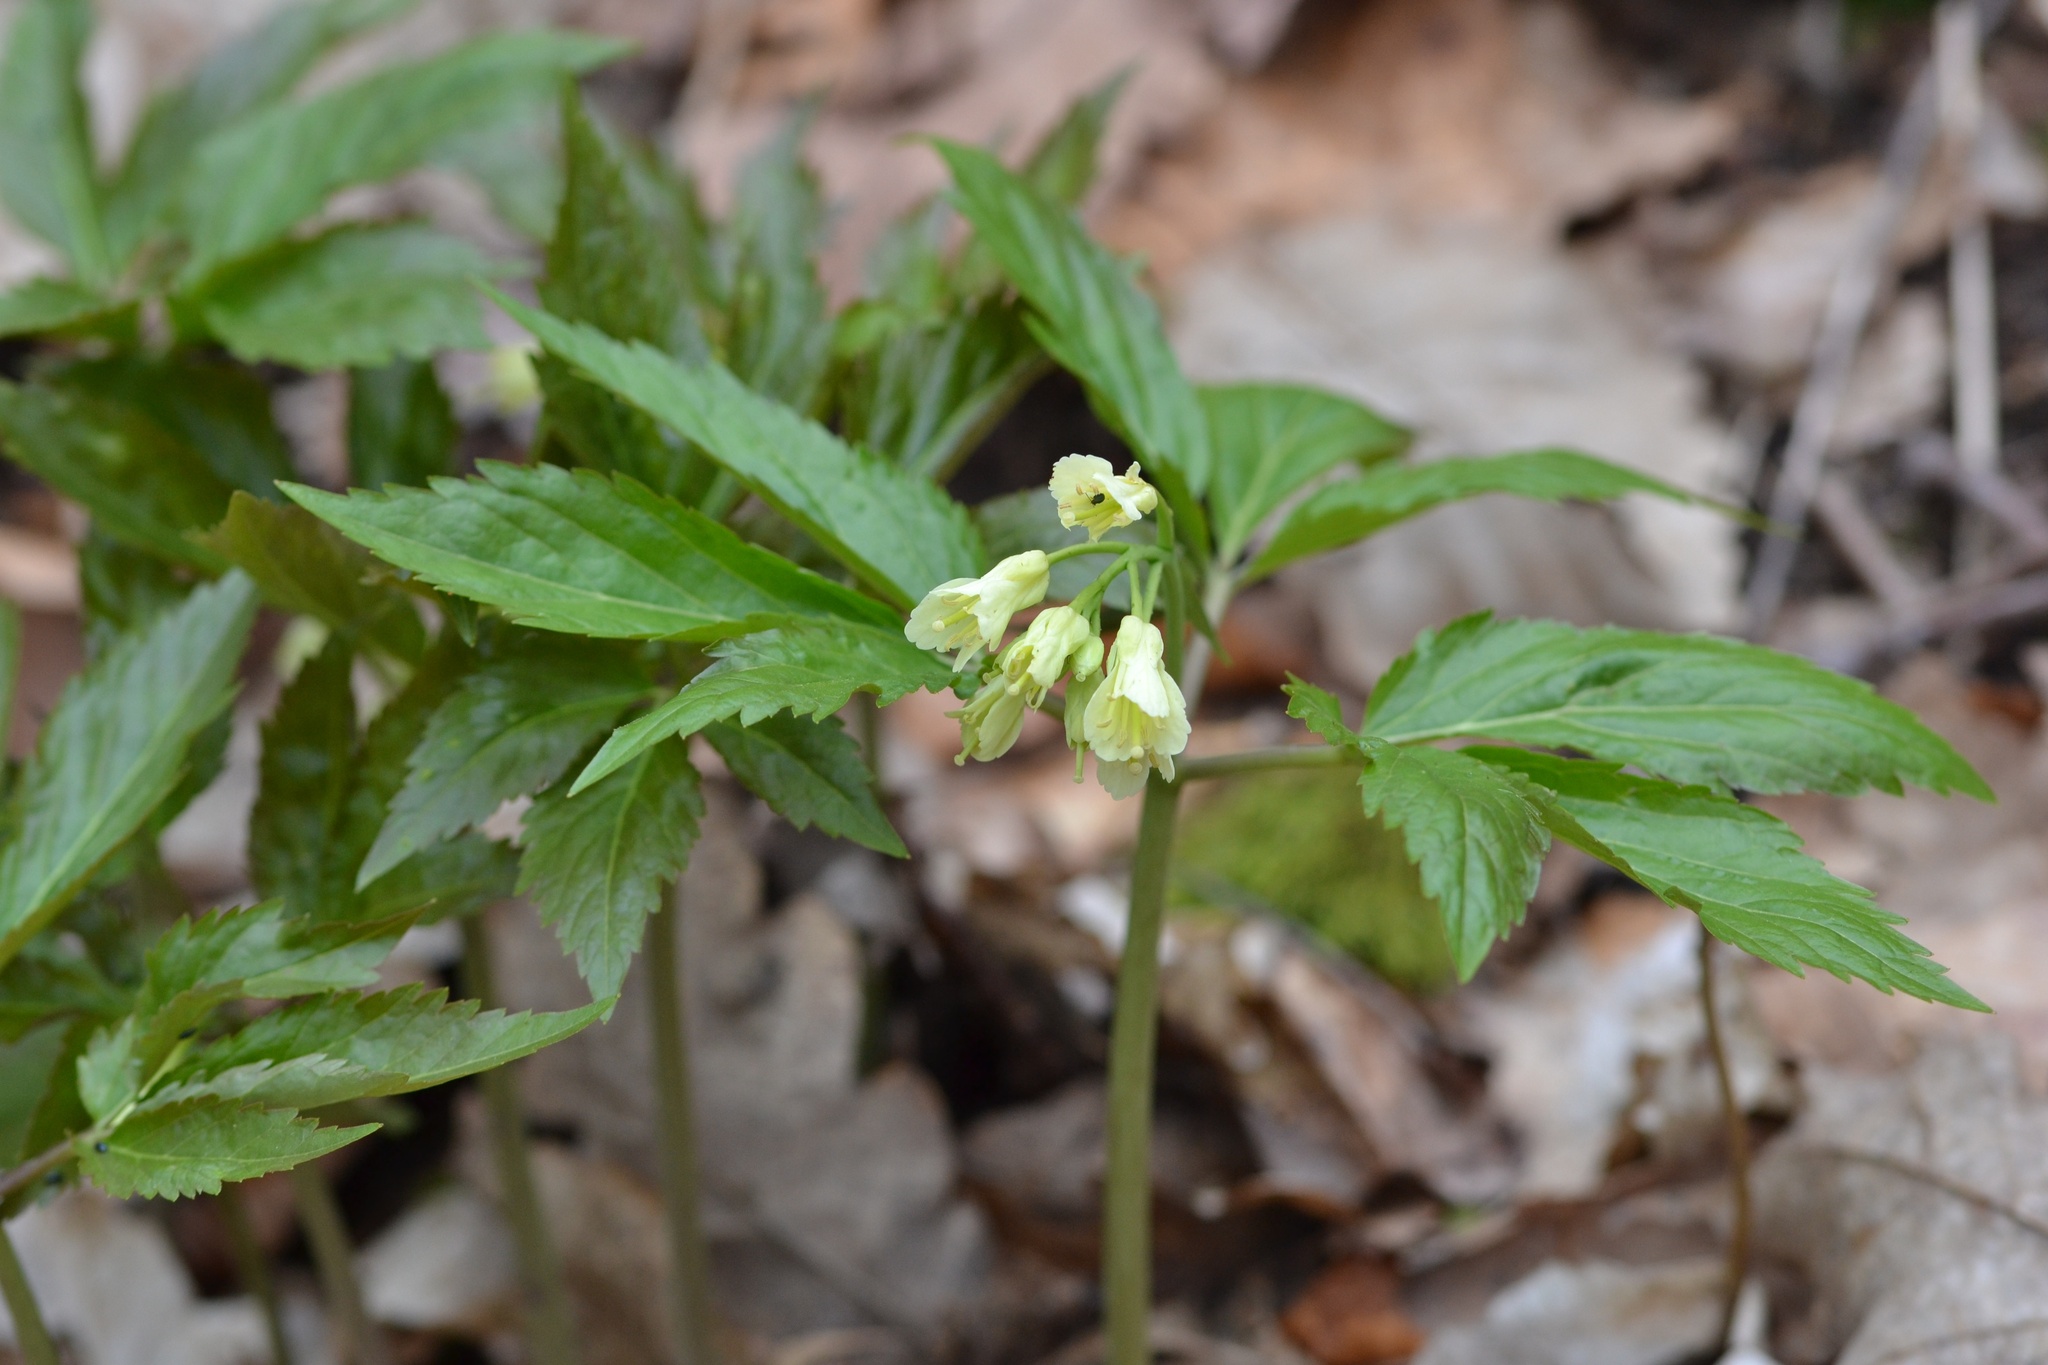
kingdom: Plantae
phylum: Tracheophyta
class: Magnoliopsida
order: Brassicales
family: Brassicaceae
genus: Cardamine
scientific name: Cardamine enneaphyllos
